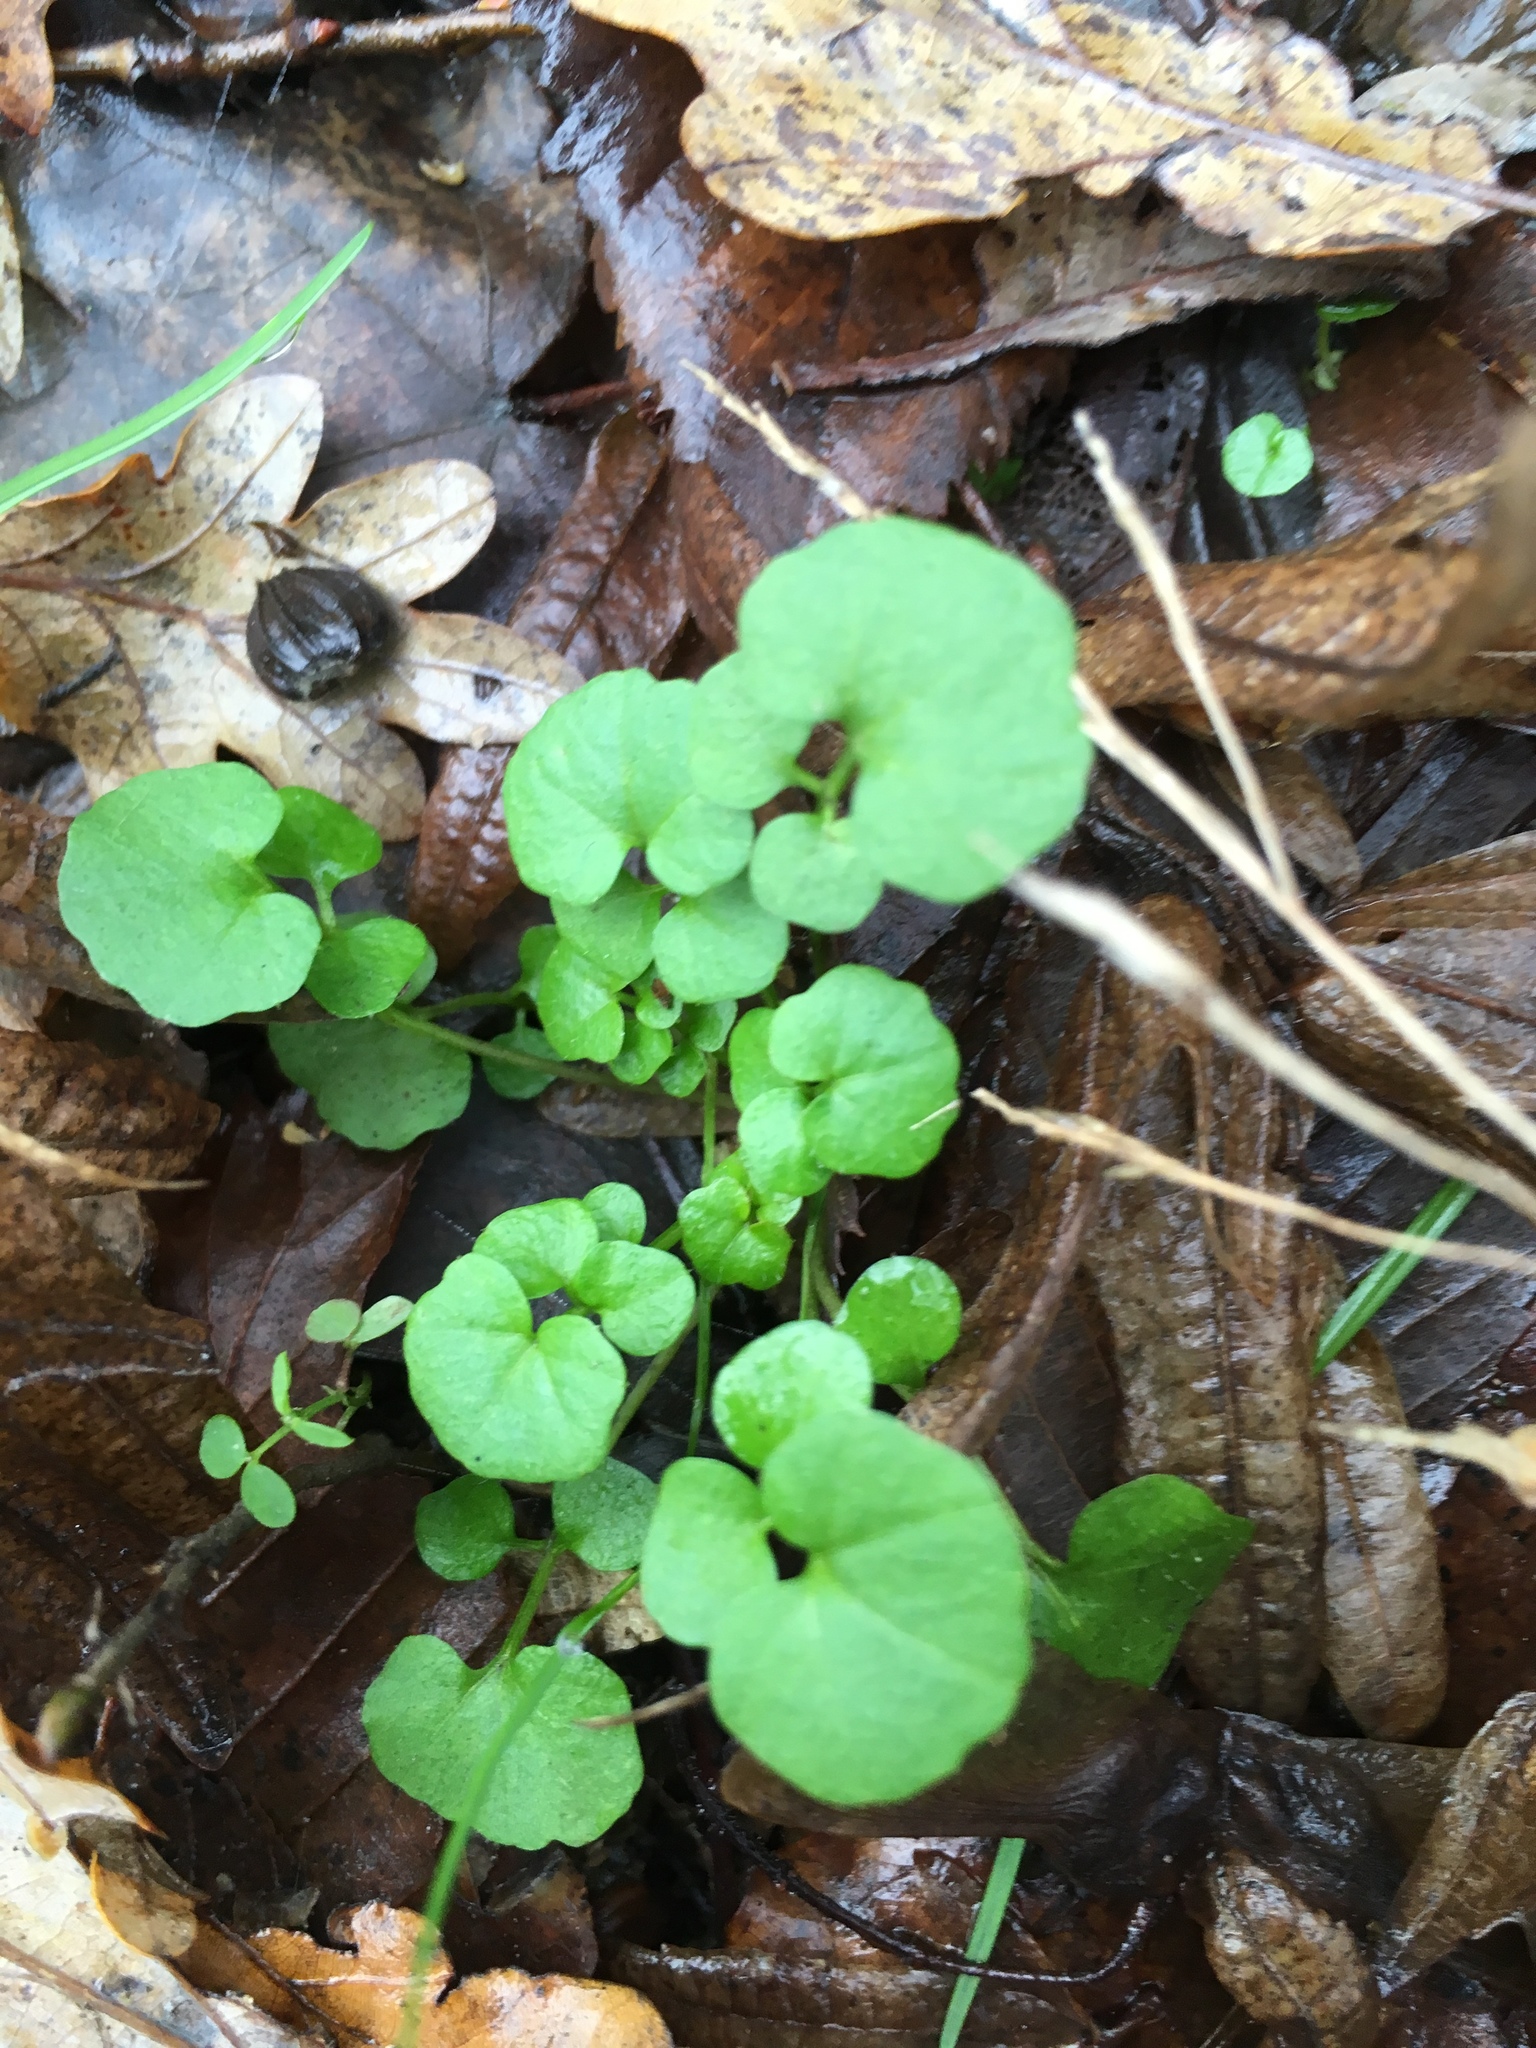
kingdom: Plantae
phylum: Tracheophyta
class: Magnoliopsida
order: Brassicales
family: Brassicaceae
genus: Cardamine
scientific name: Cardamine hirsuta
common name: Hairy bittercress
